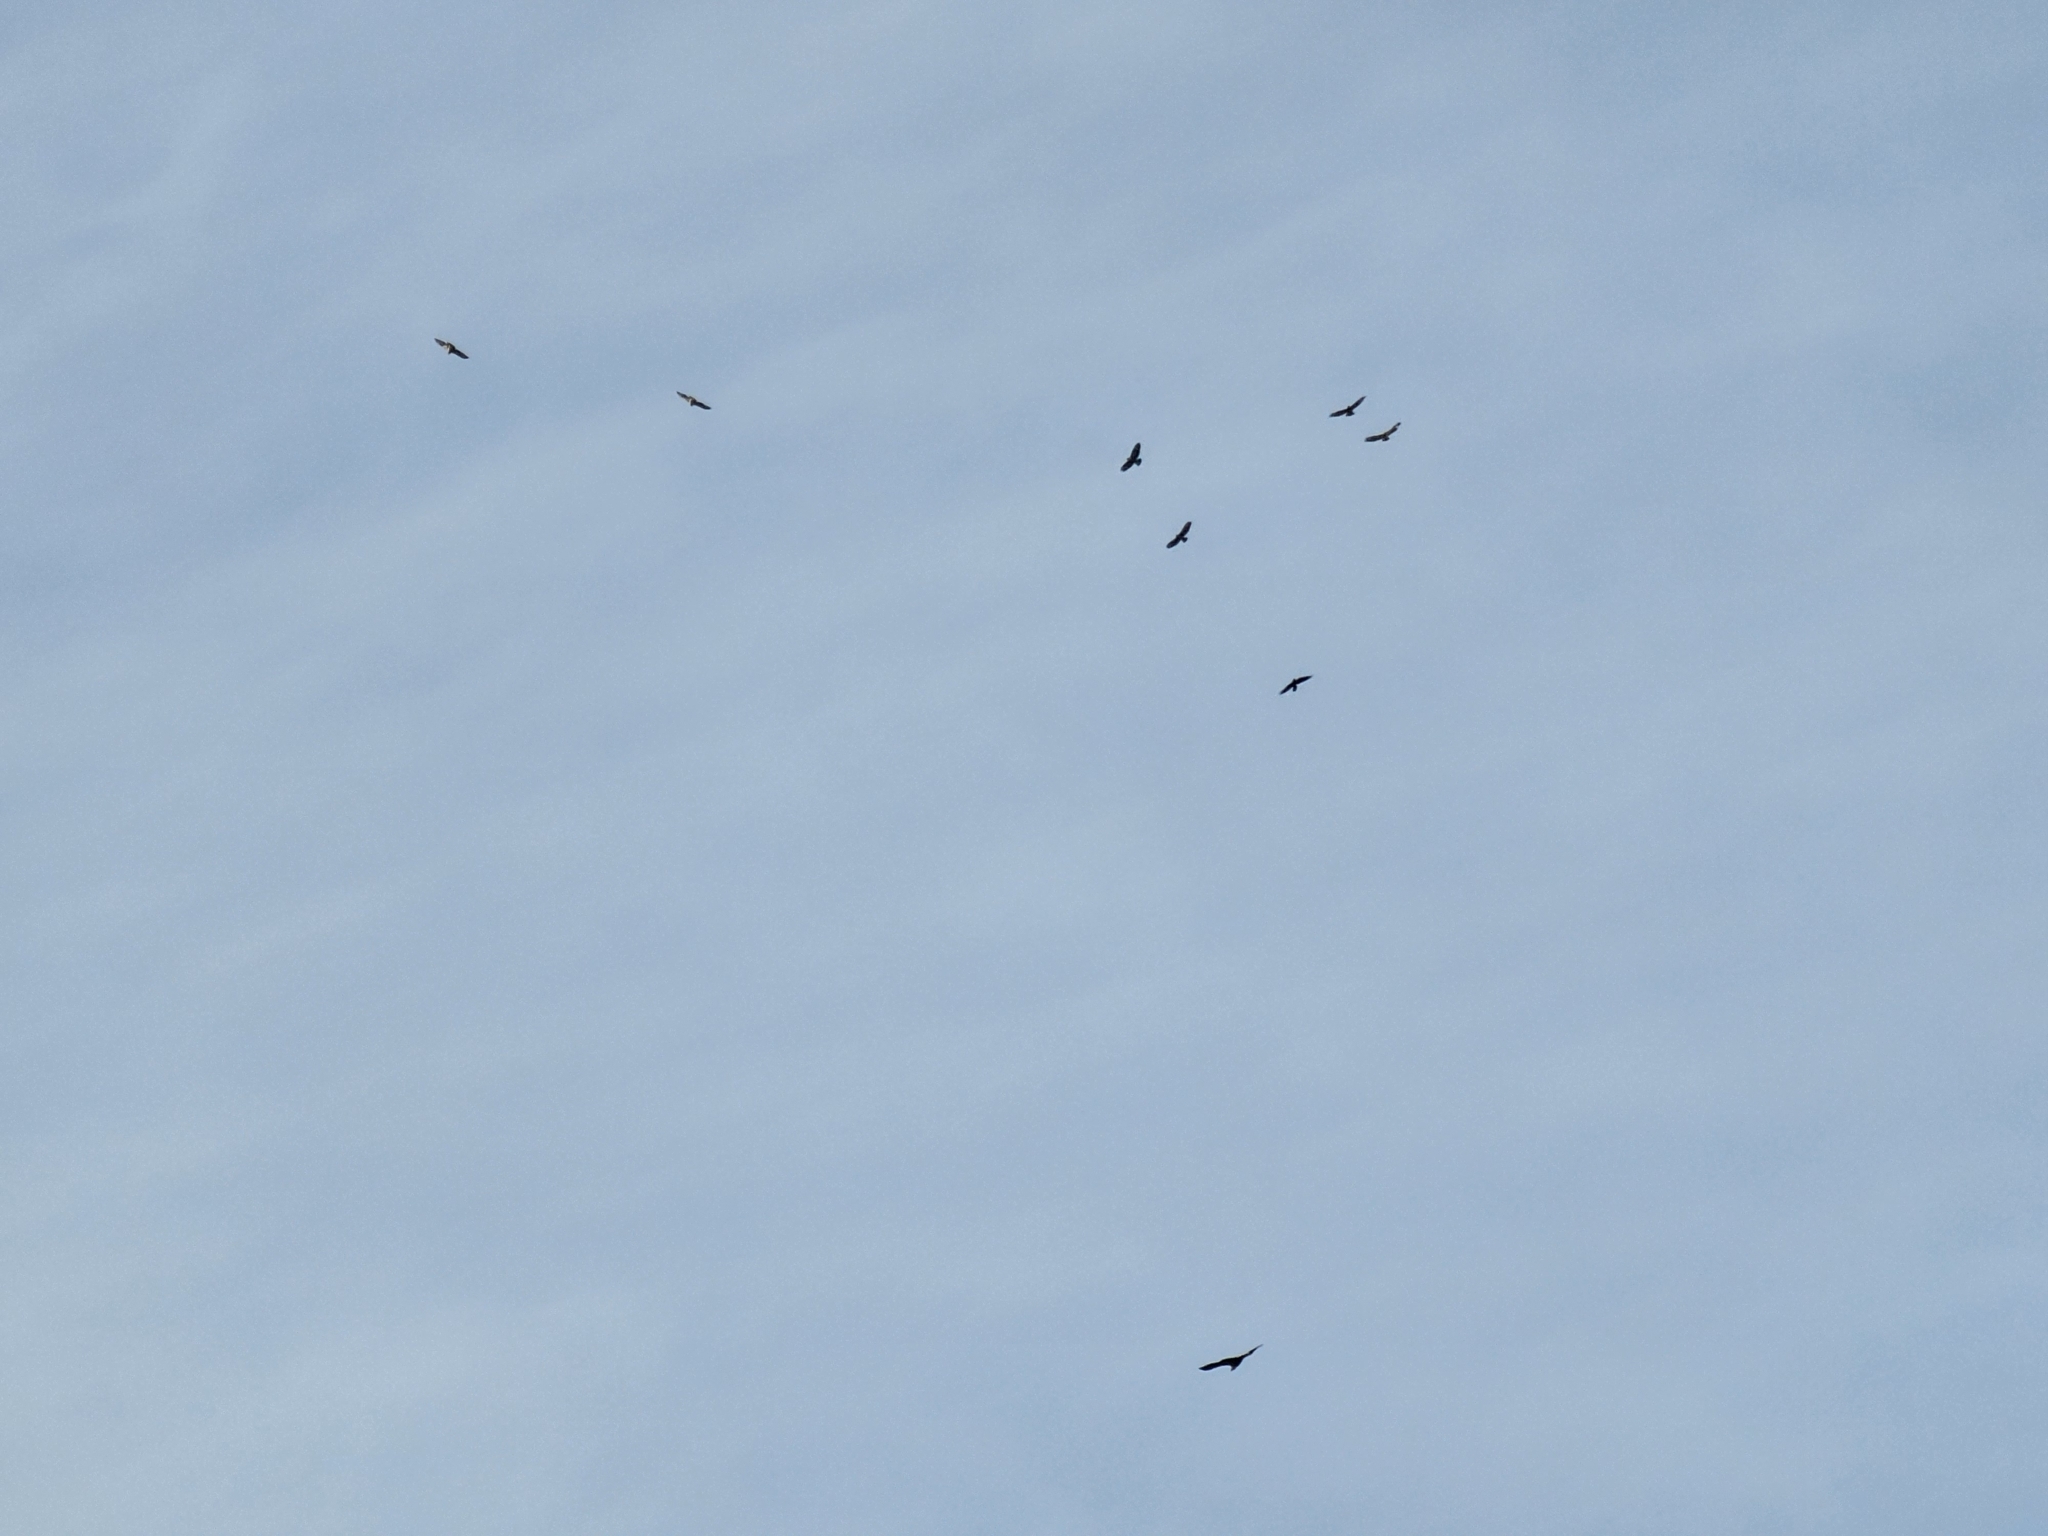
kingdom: Animalia
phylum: Chordata
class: Aves
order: Accipitriformes
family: Accipitridae
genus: Haliaeetus
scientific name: Haliaeetus albicilla
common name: White-tailed eagle
